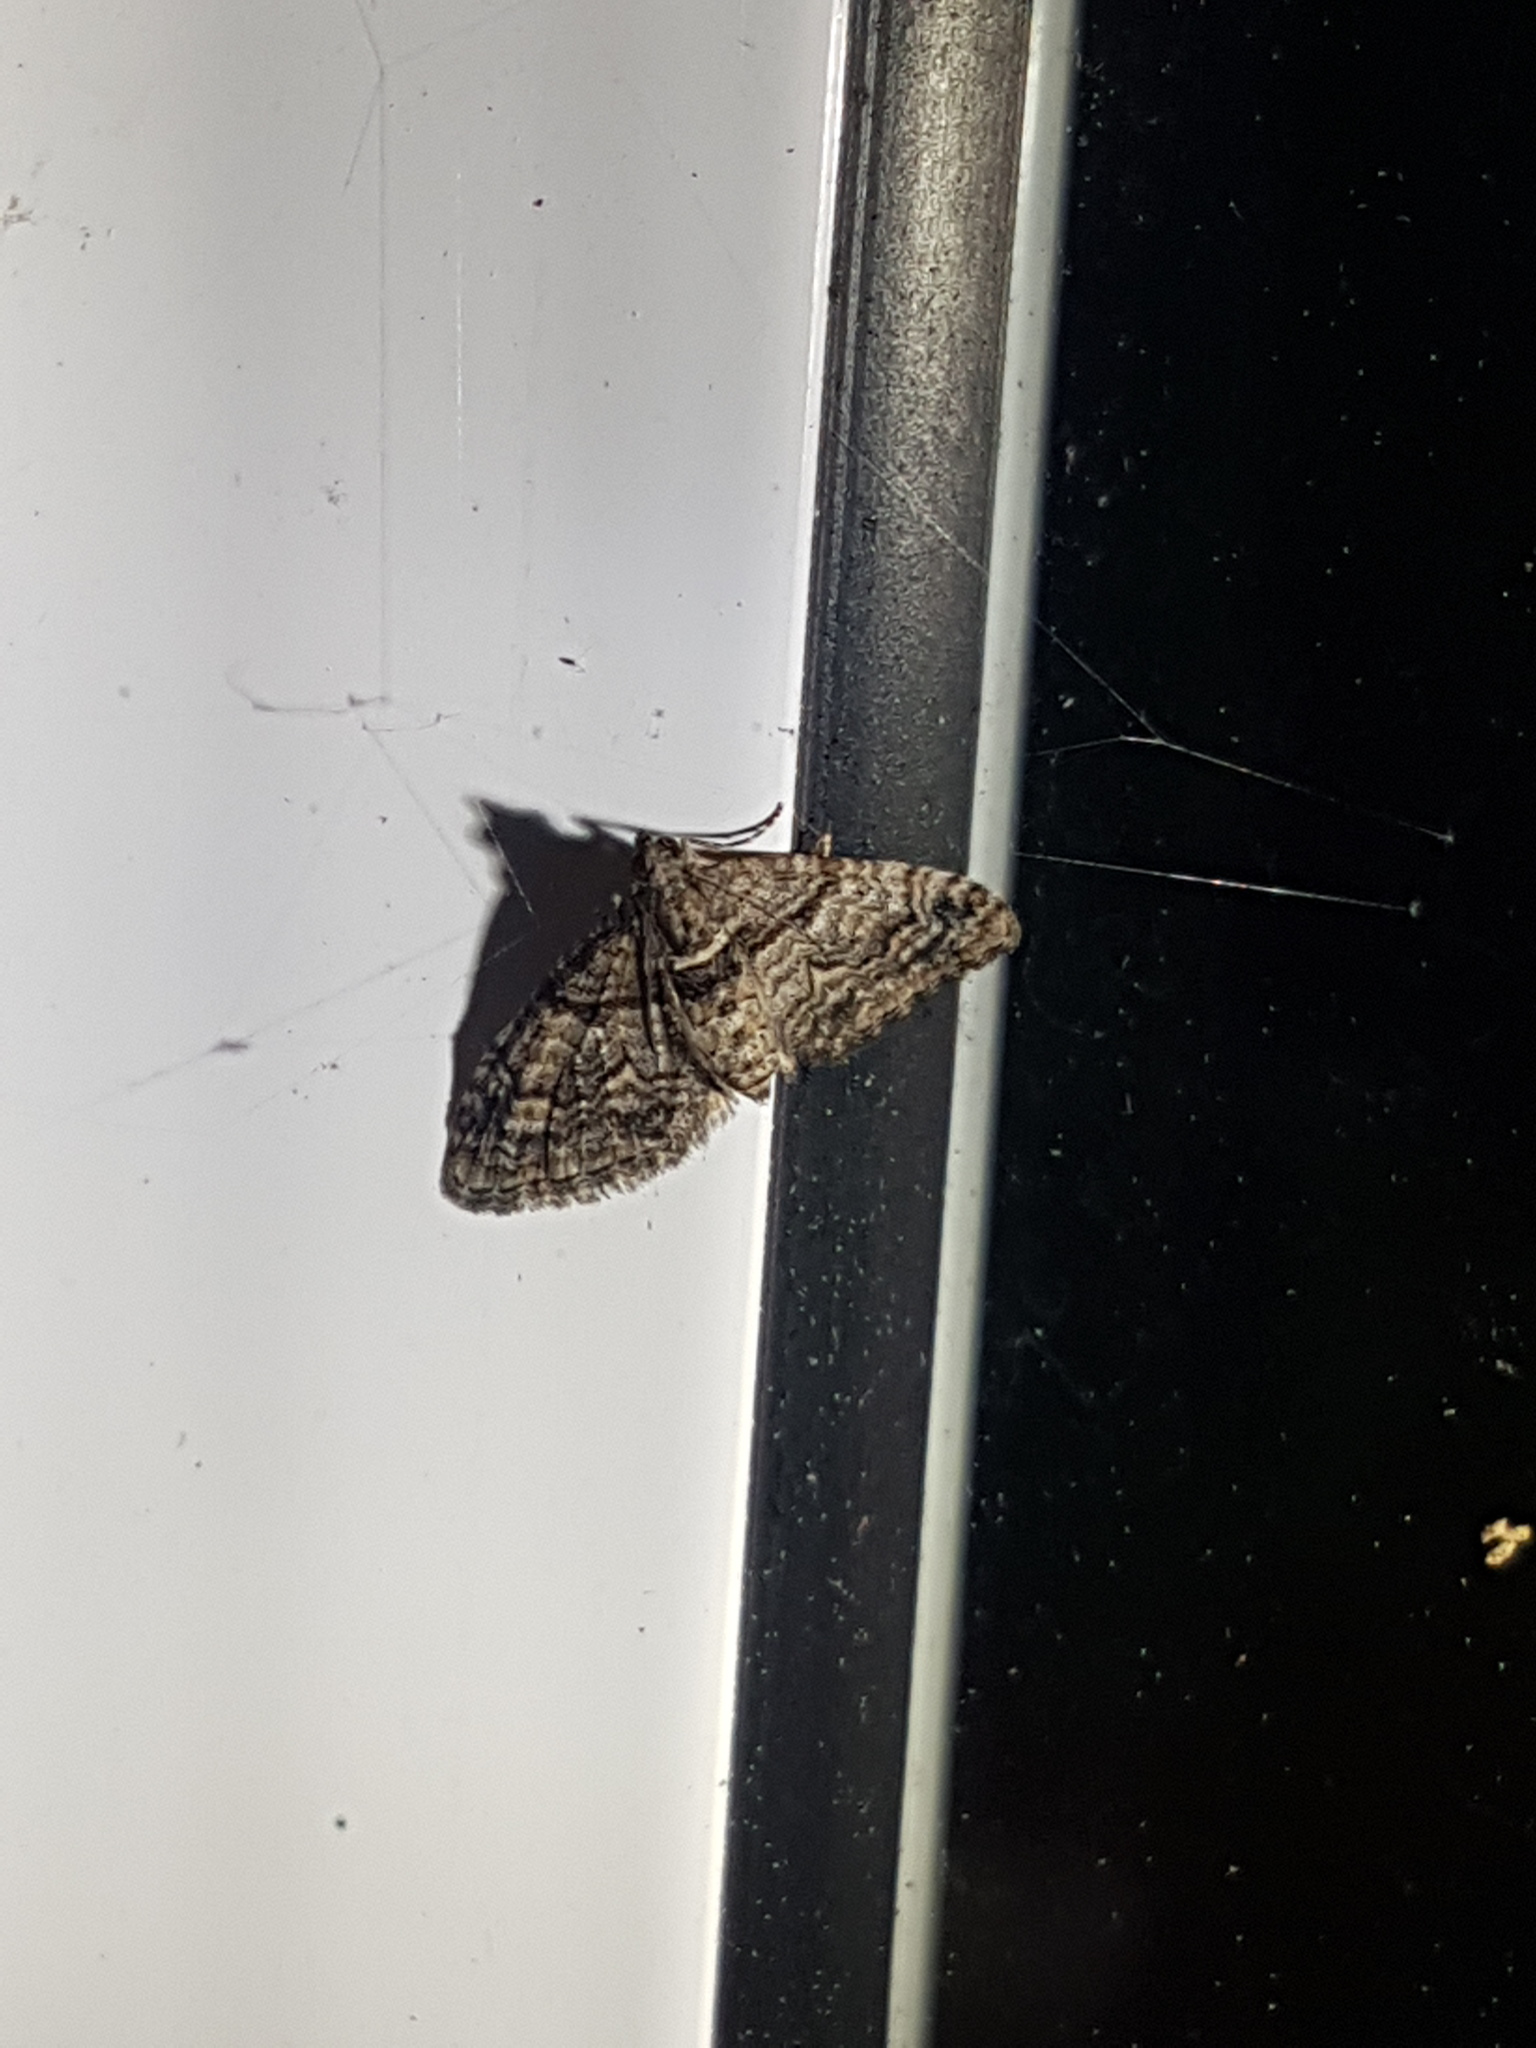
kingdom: Animalia
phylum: Arthropoda
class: Insecta
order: Lepidoptera
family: Geometridae
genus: Phrissogonus
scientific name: Phrissogonus laticostata
